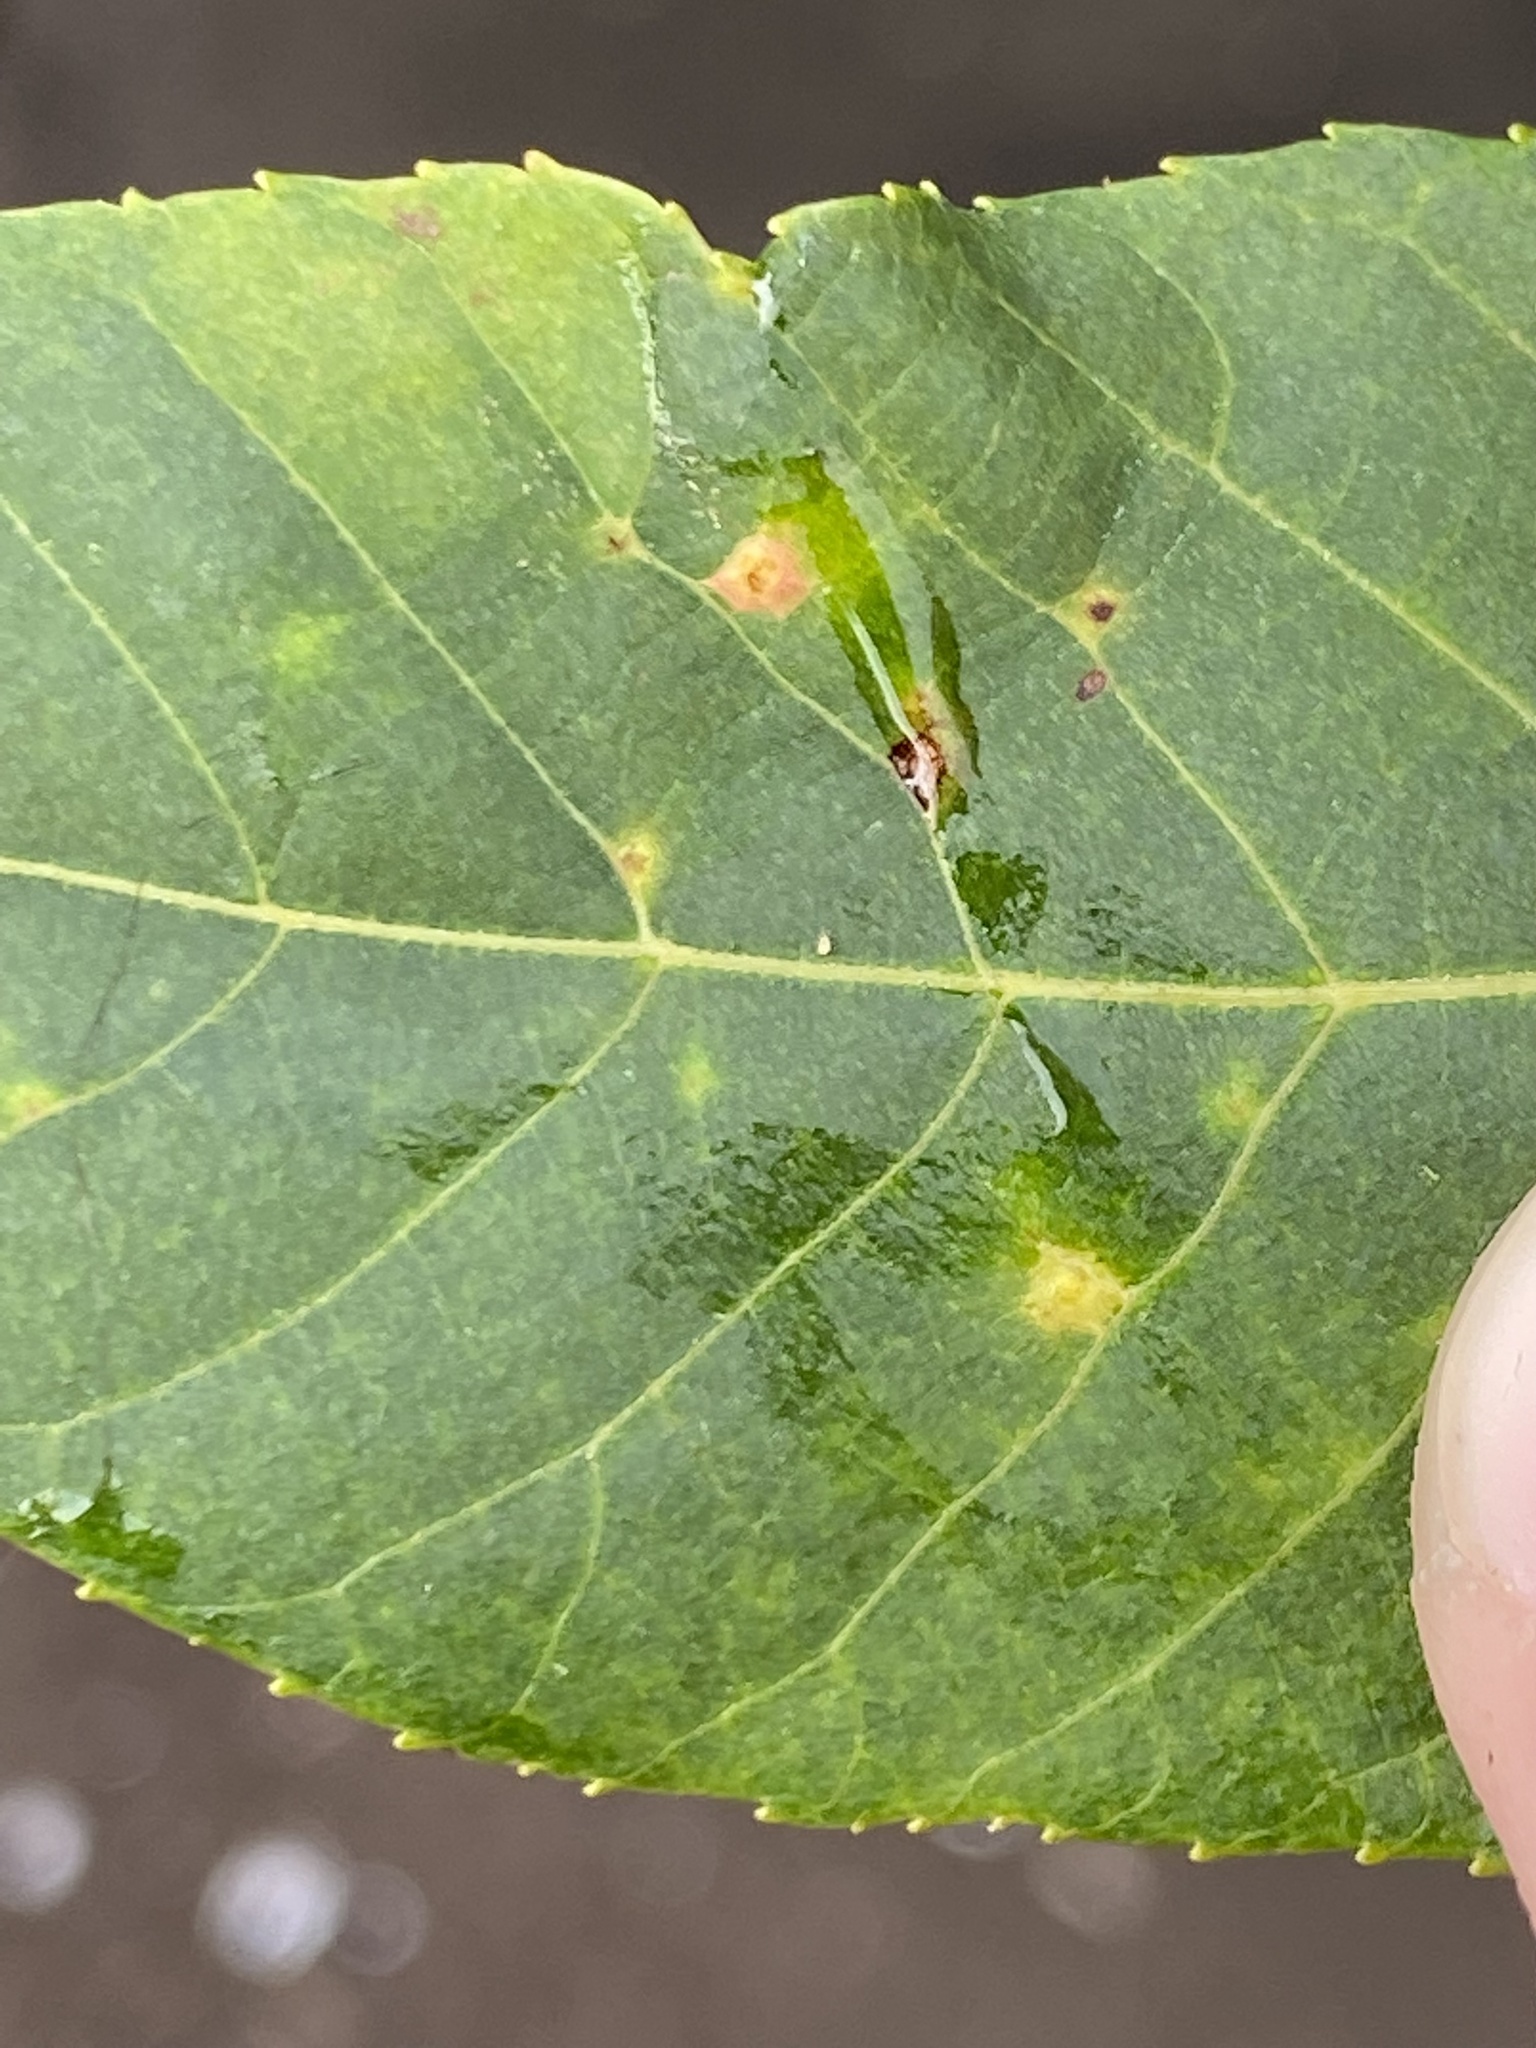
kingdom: Animalia
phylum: Arthropoda
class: Insecta
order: Diptera
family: Cecidomyiidae
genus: Caryomyia
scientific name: Caryomyia ovalis
